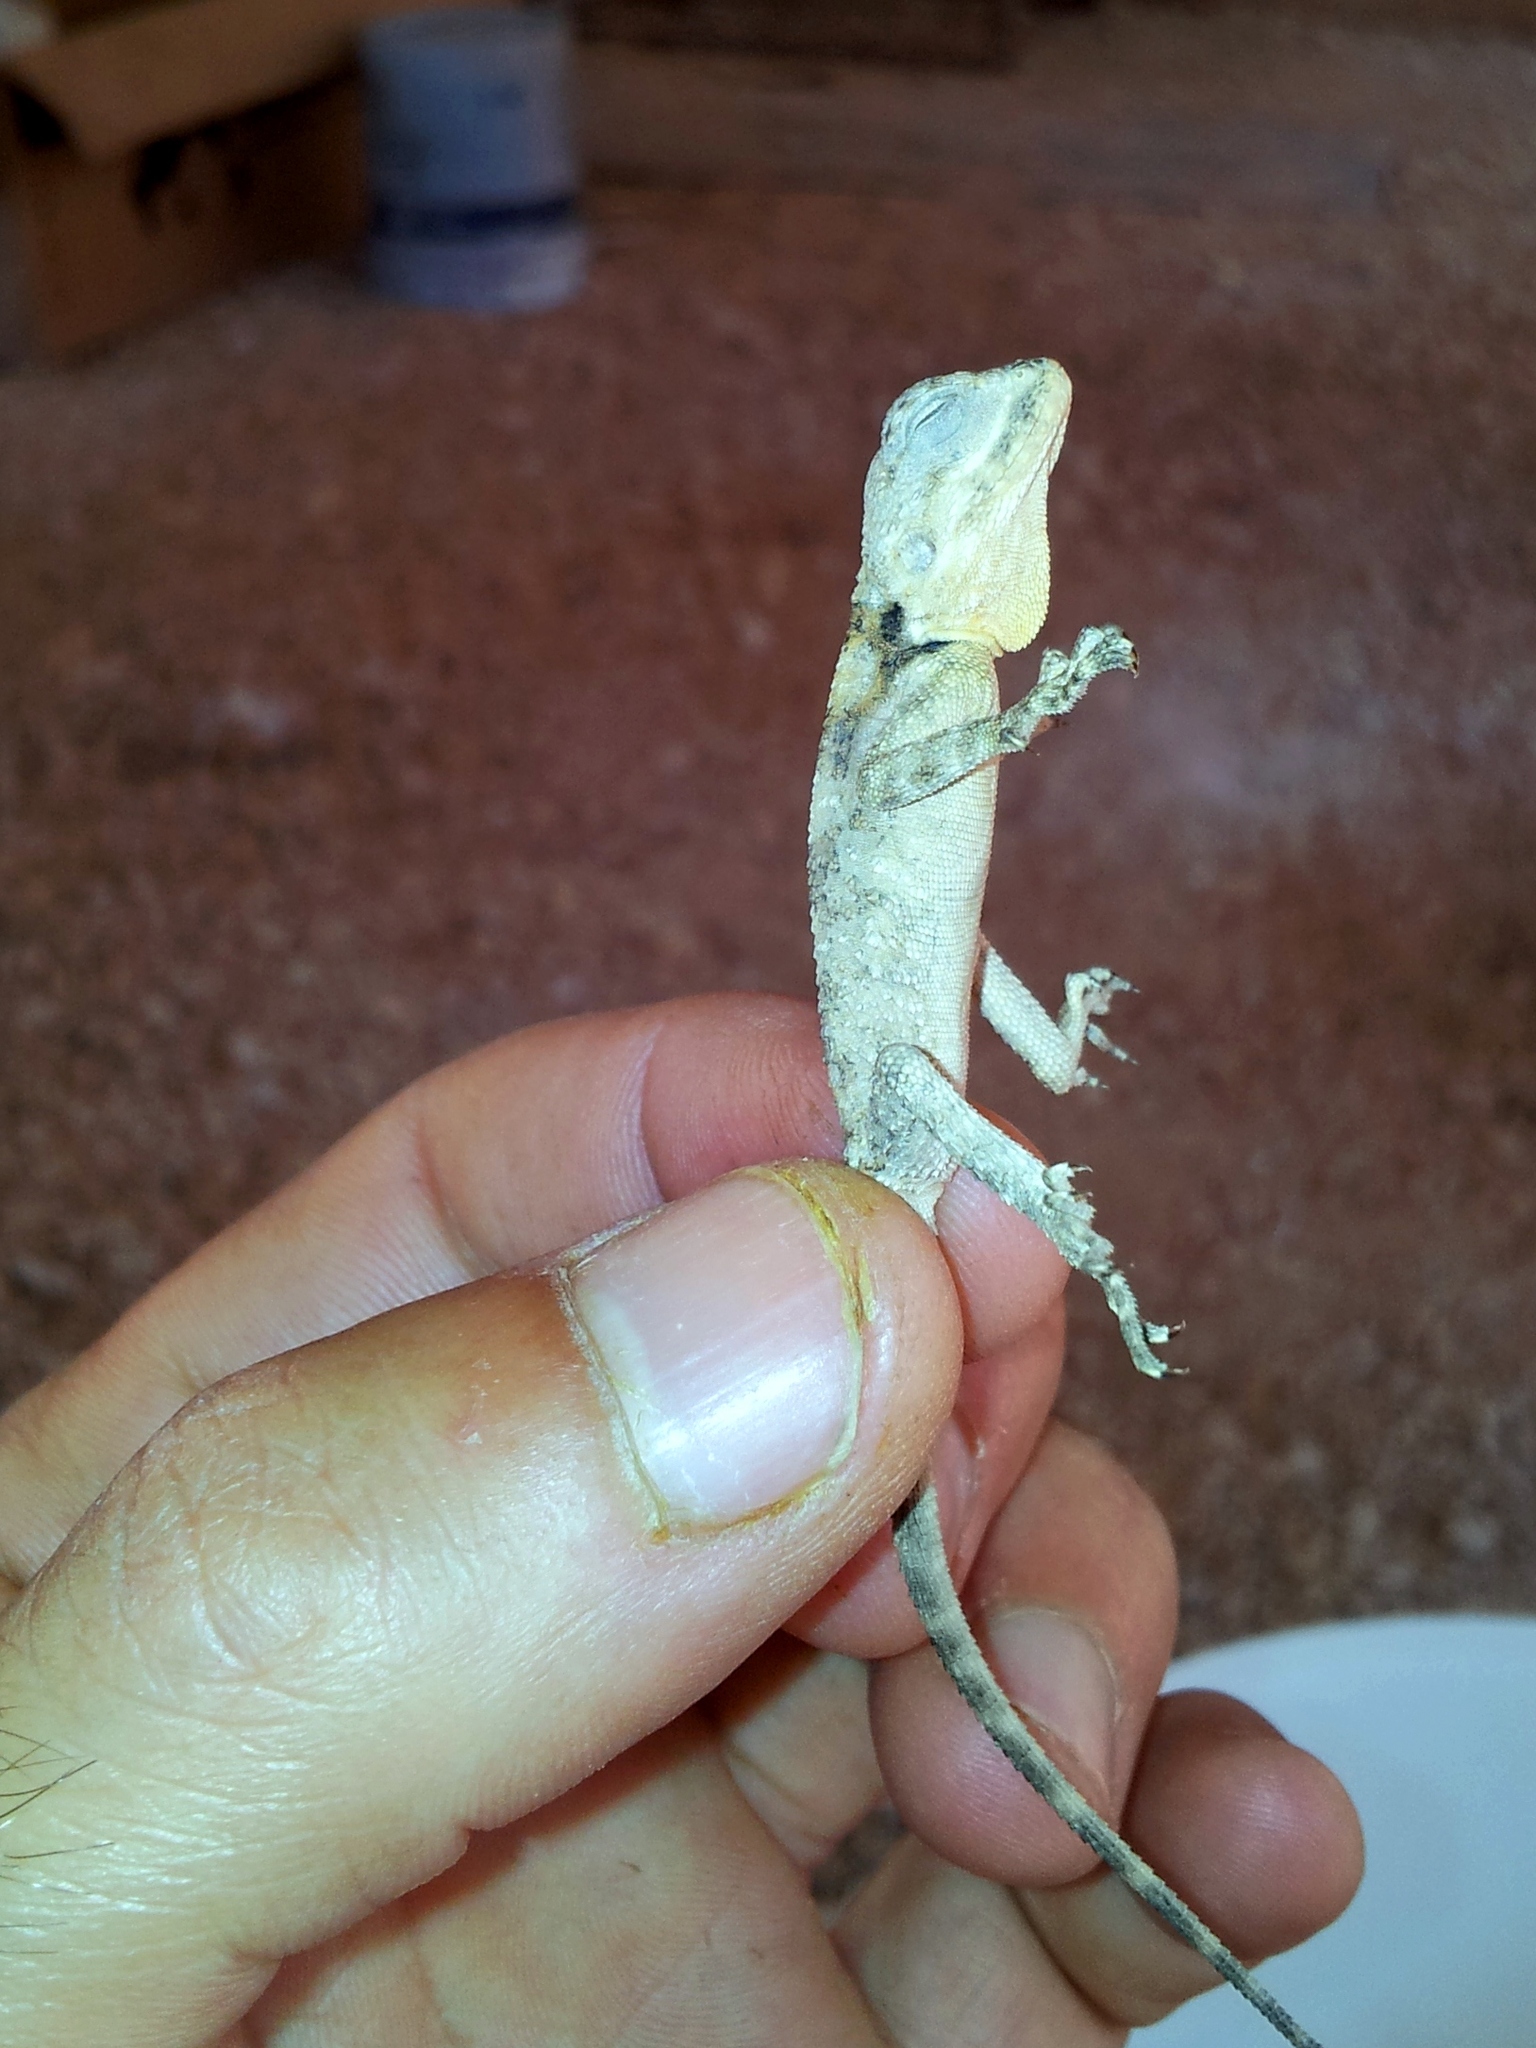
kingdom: Animalia
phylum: Chordata
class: Squamata
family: Agamidae
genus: Laudakia
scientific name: Laudakia vulgaris
